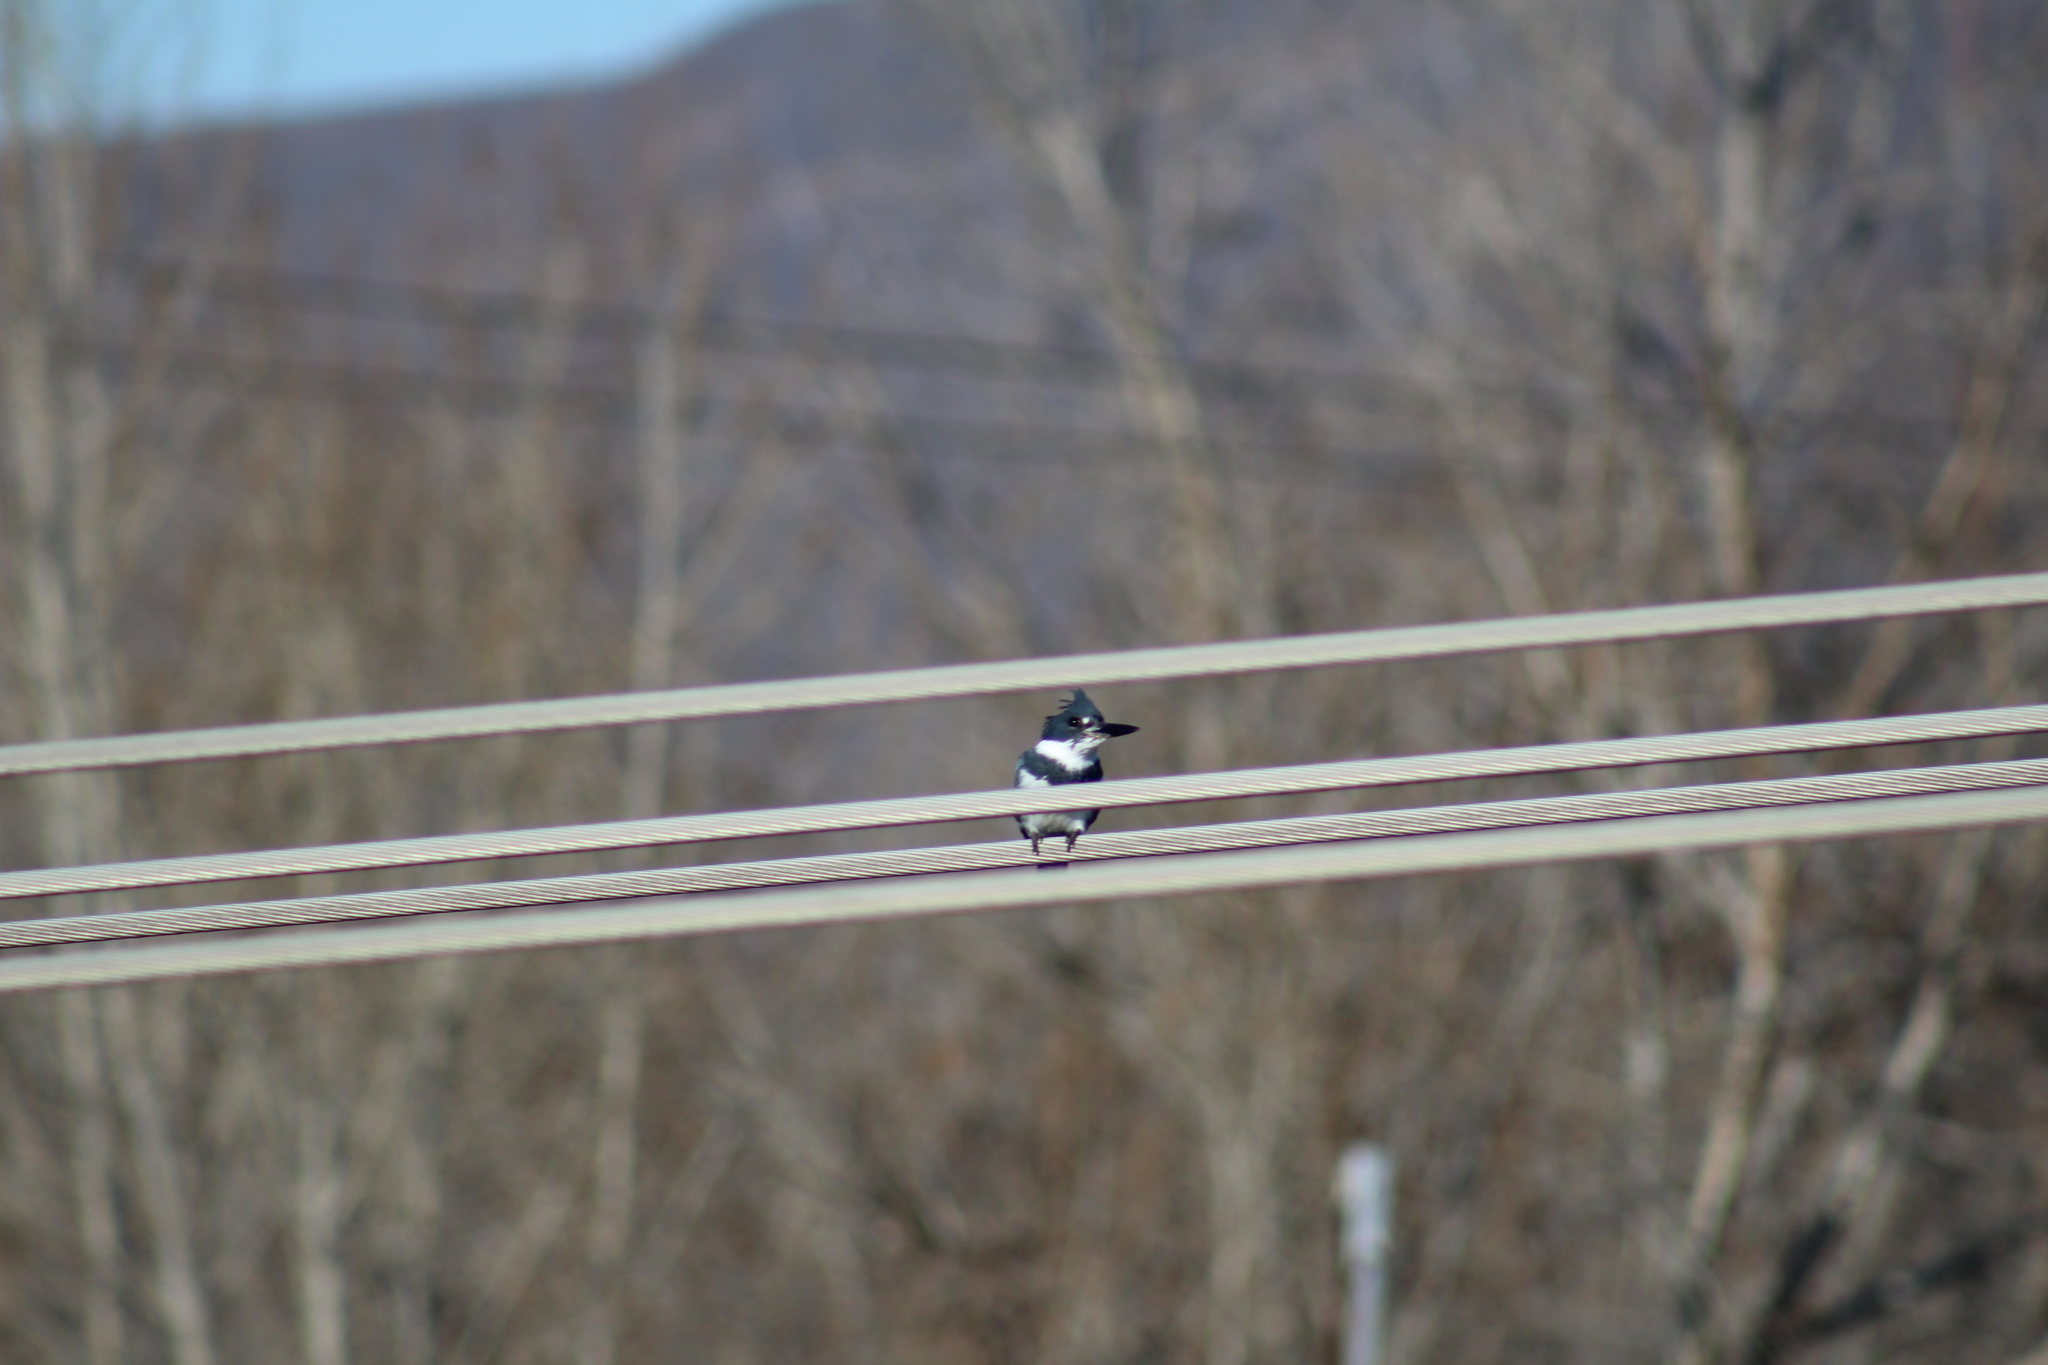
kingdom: Animalia
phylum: Chordata
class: Aves
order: Coraciiformes
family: Alcedinidae
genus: Megaceryle
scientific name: Megaceryle alcyon
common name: Belted kingfisher
